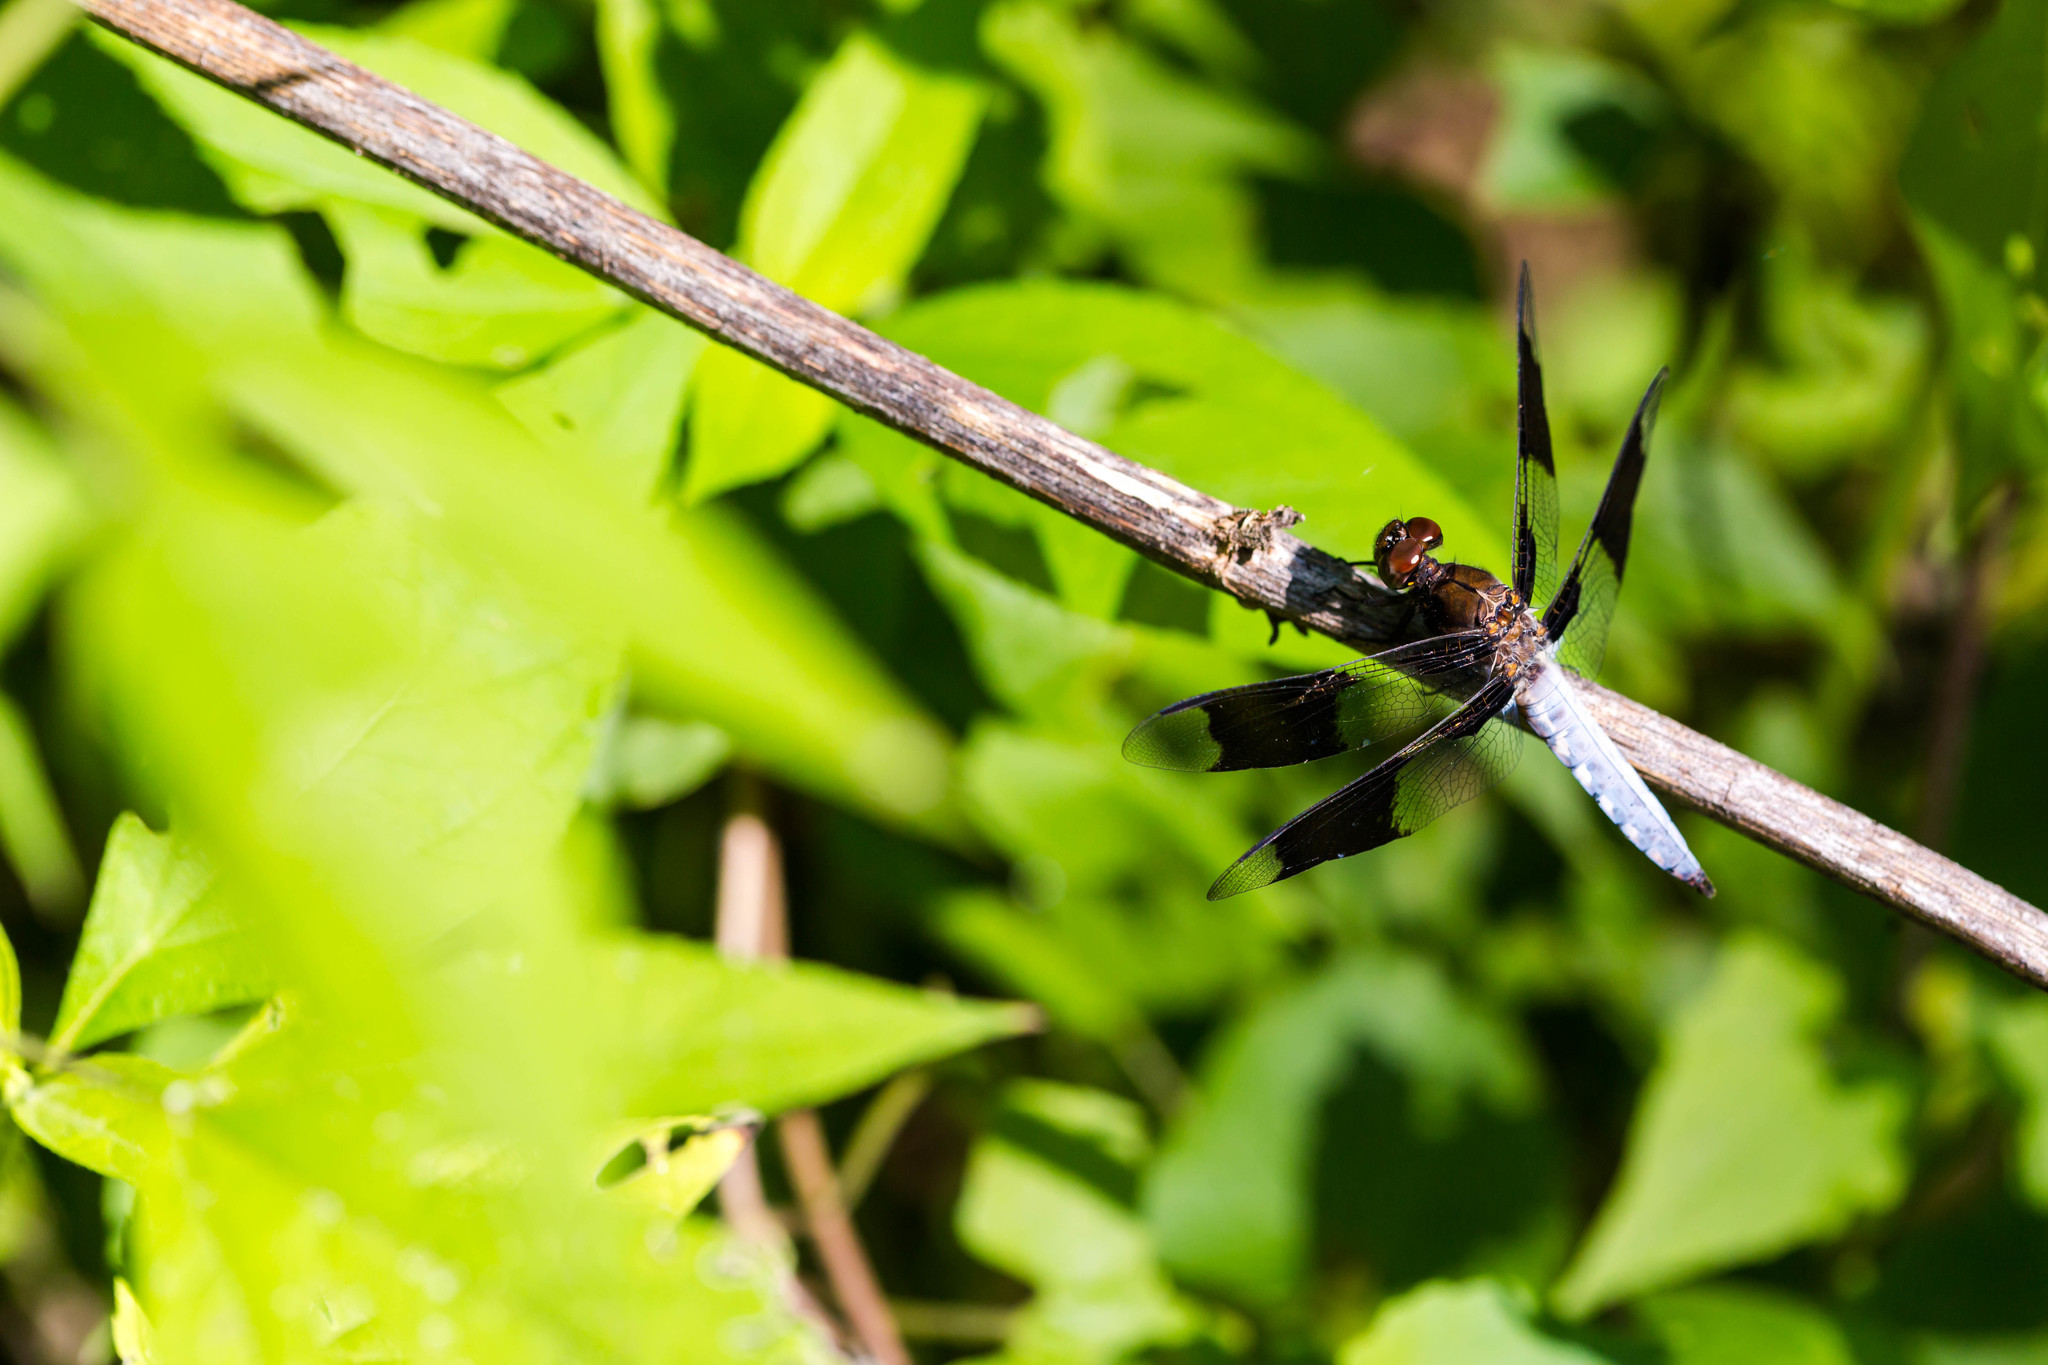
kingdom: Animalia
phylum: Arthropoda
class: Insecta
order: Odonata
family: Libellulidae
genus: Plathemis
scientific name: Plathemis lydia
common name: Common whitetail
